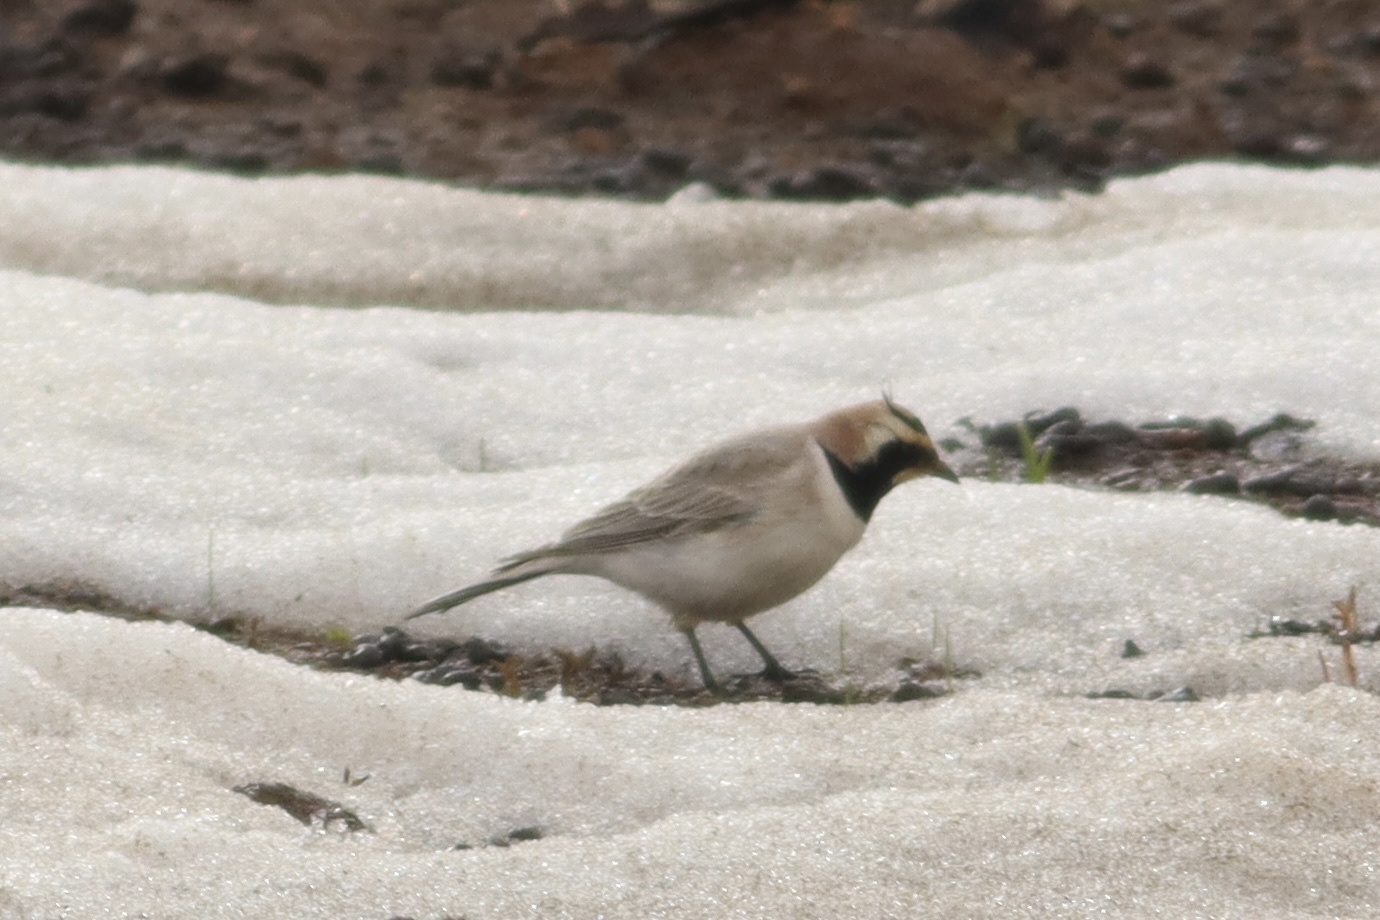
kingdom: Animalia
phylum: Chordata
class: Aves
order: Passeriformes
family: Alaudidae
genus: Eremophila
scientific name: Eremophila alpestris
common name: Horned lark
